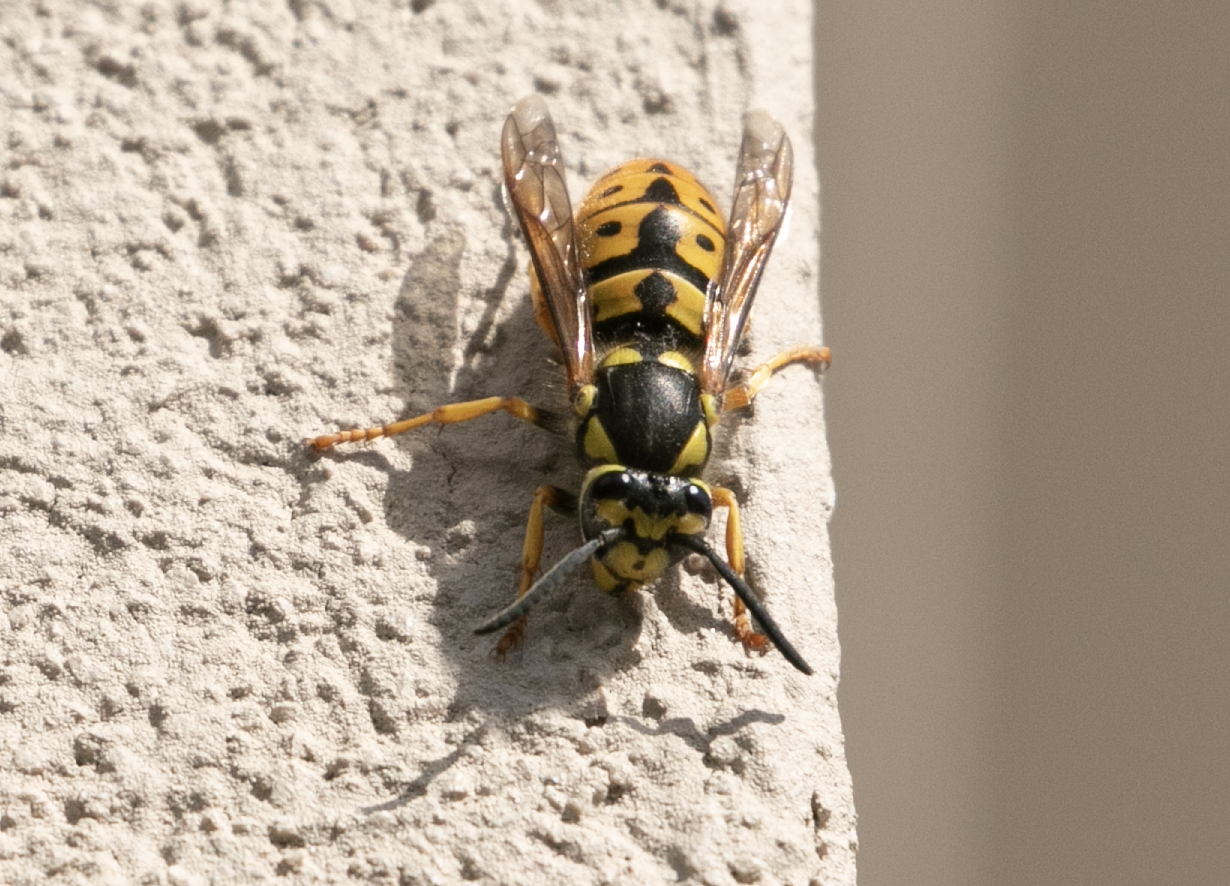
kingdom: Animalia
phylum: Arthropoda
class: Insecta
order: Hymenoptera
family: Vespidae
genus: Vespula
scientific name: Vespula germanica
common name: German wasp
